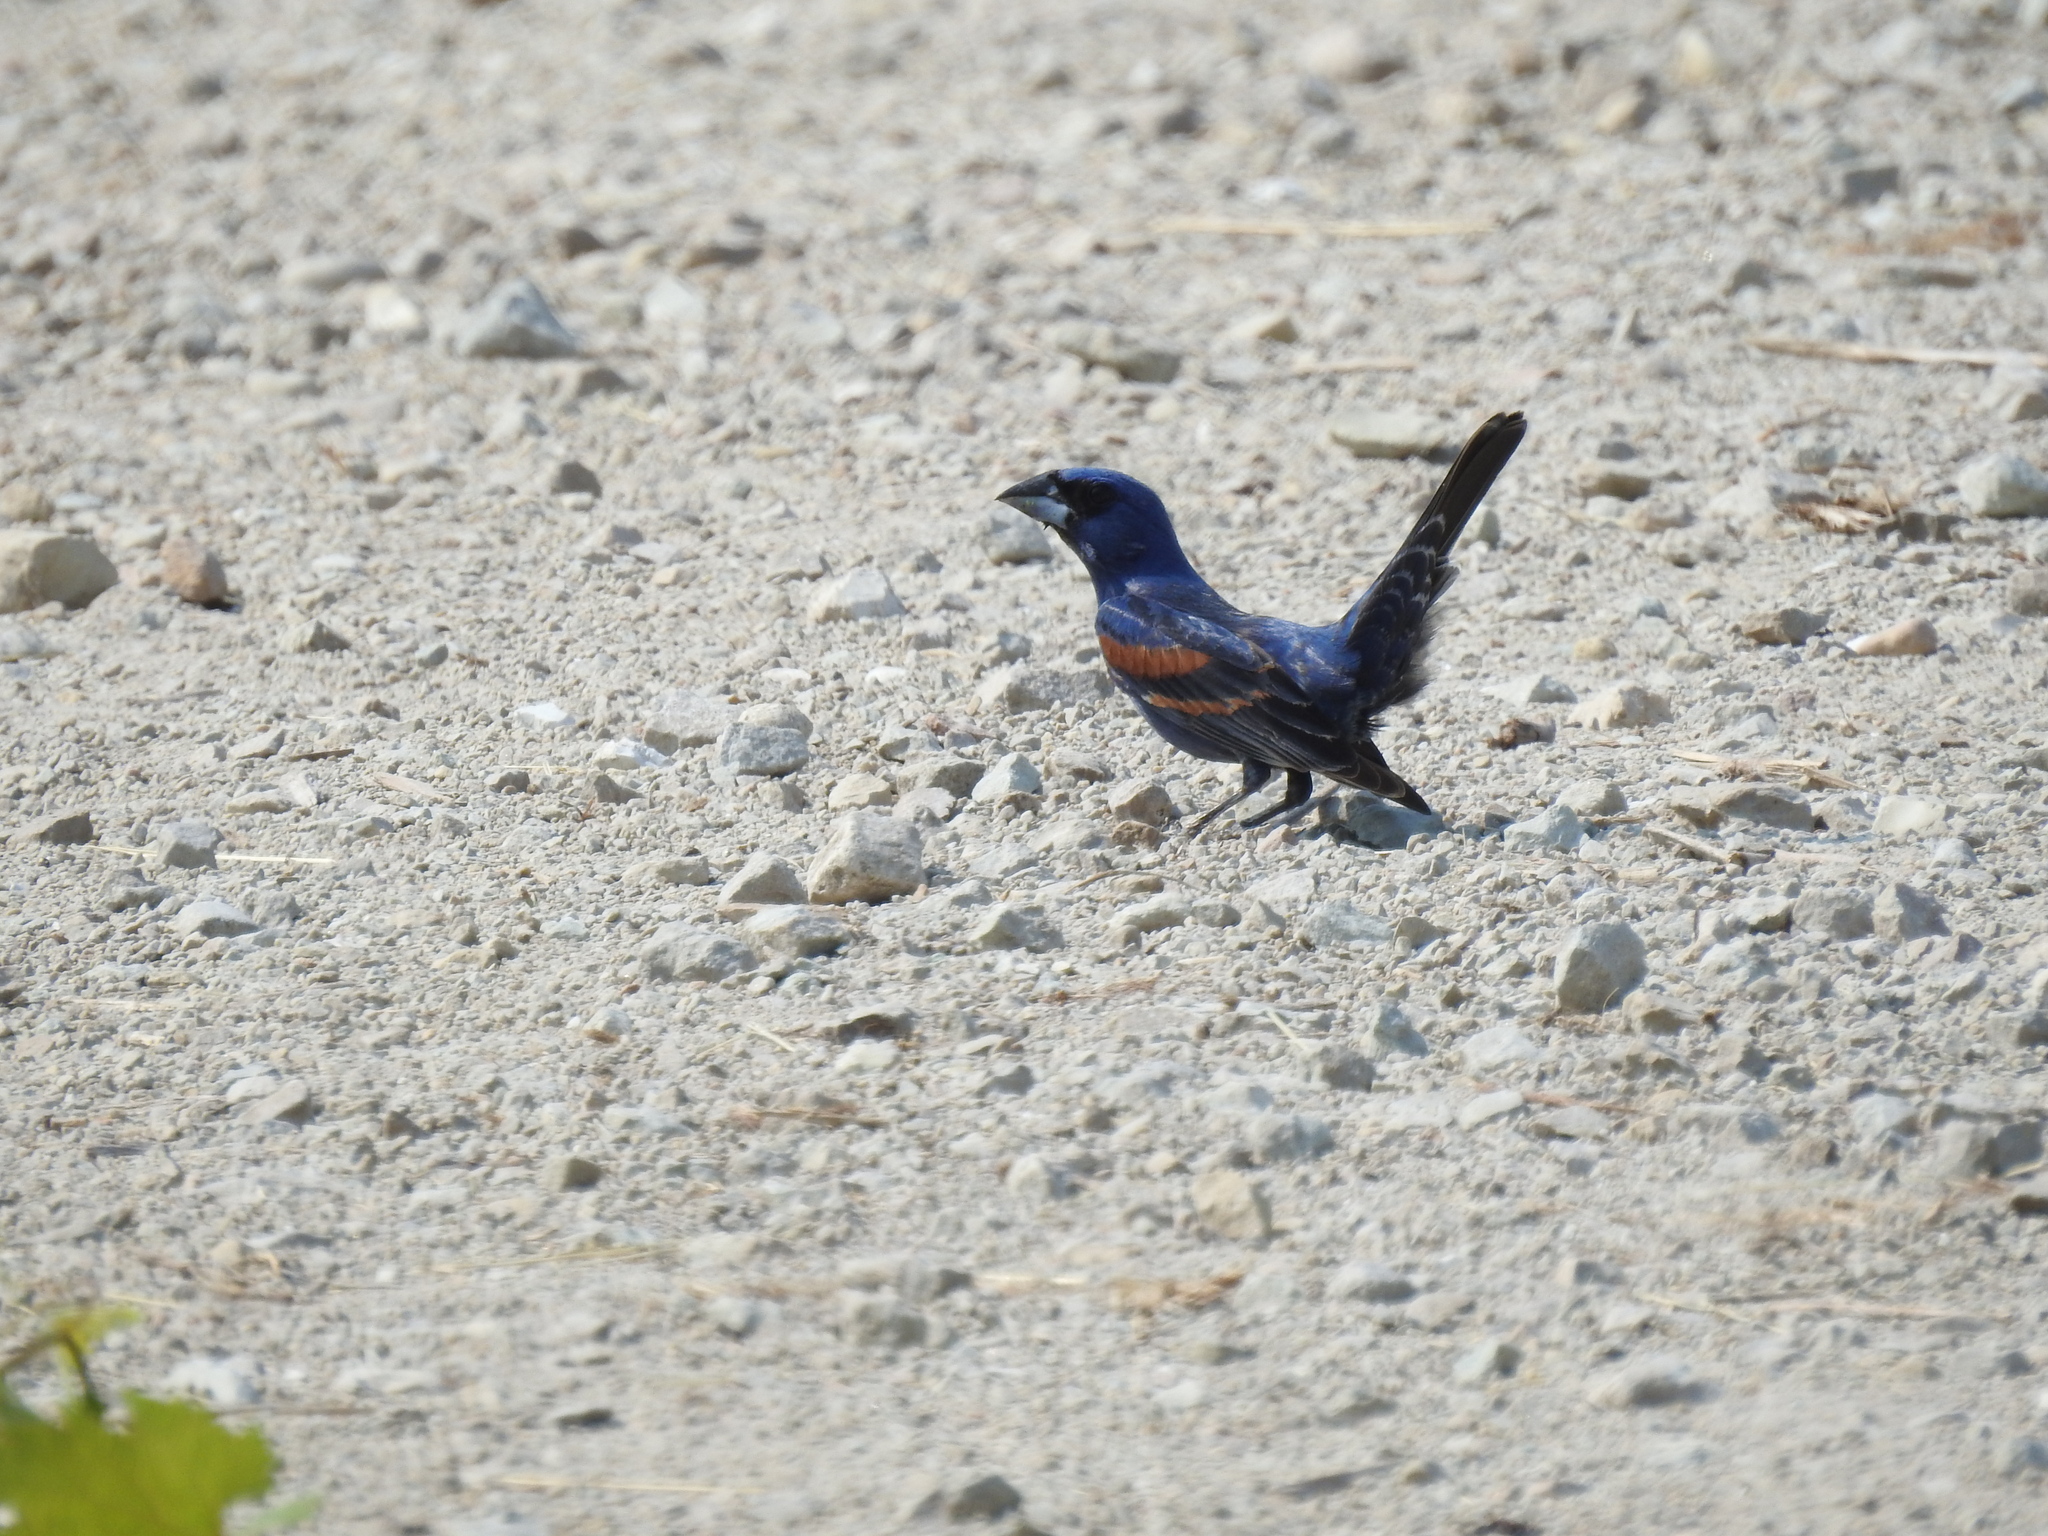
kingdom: Animalia
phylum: Chordata
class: Aves
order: Passeriformes
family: Cardinalidae
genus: Passerina
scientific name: Passerina caerulea
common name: Blue grosbeak
